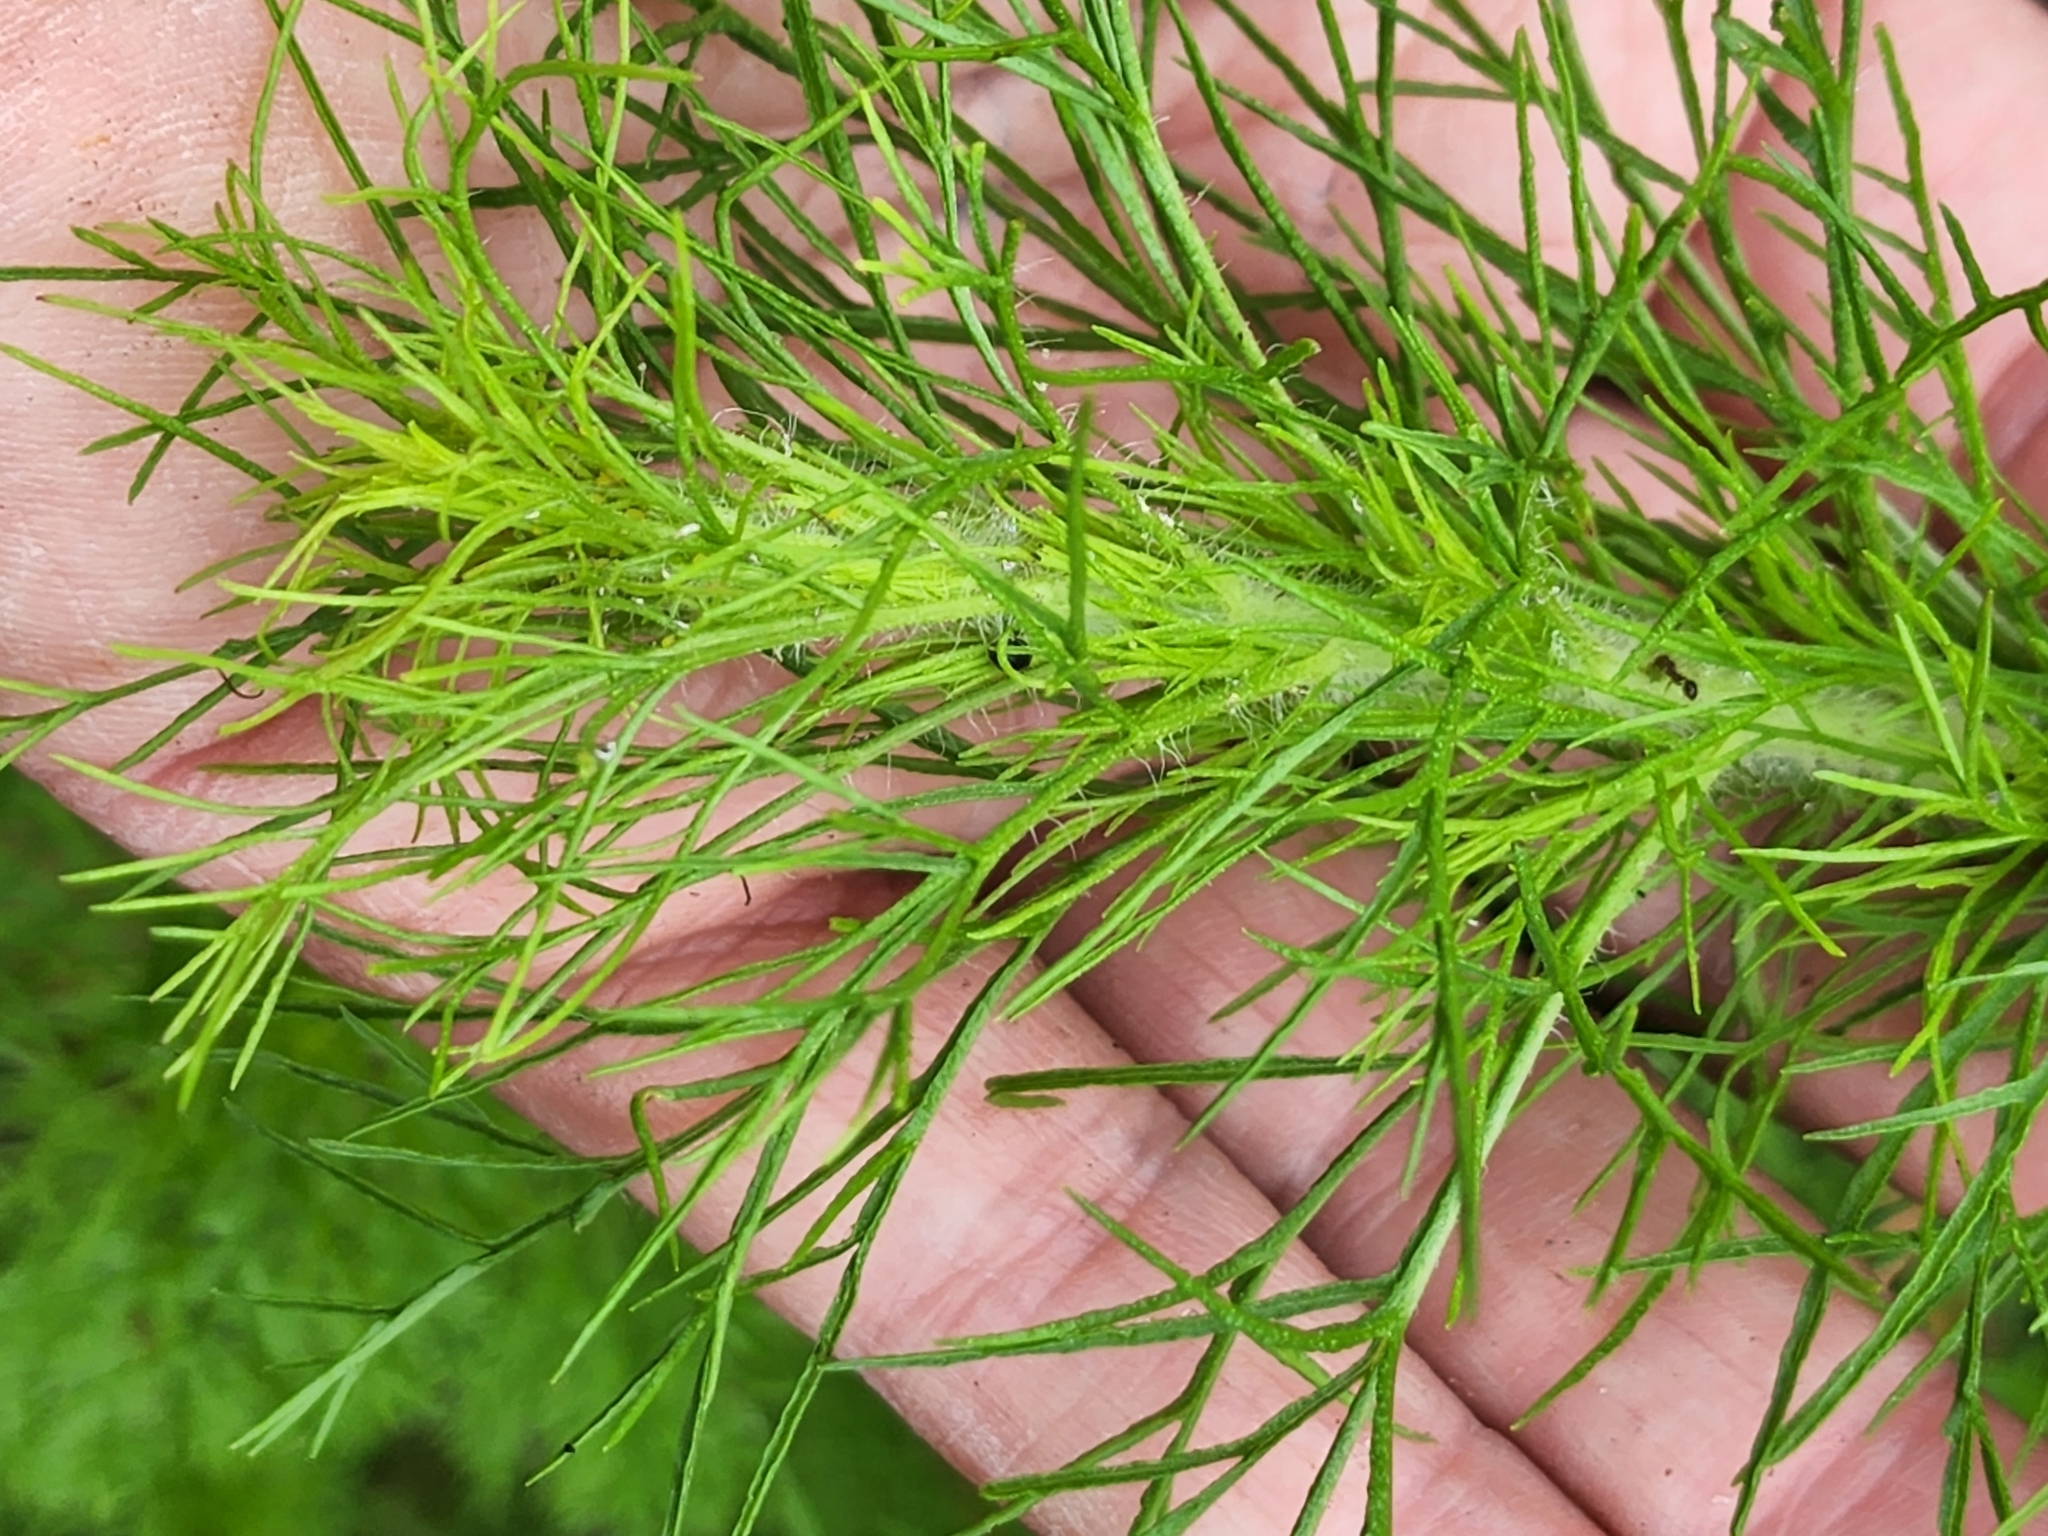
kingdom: Plantae
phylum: Tracheophyta
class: Magnoliopsida
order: Asterales
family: Asteraceae
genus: Eupatorium
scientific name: Eupatorium compositifolium
